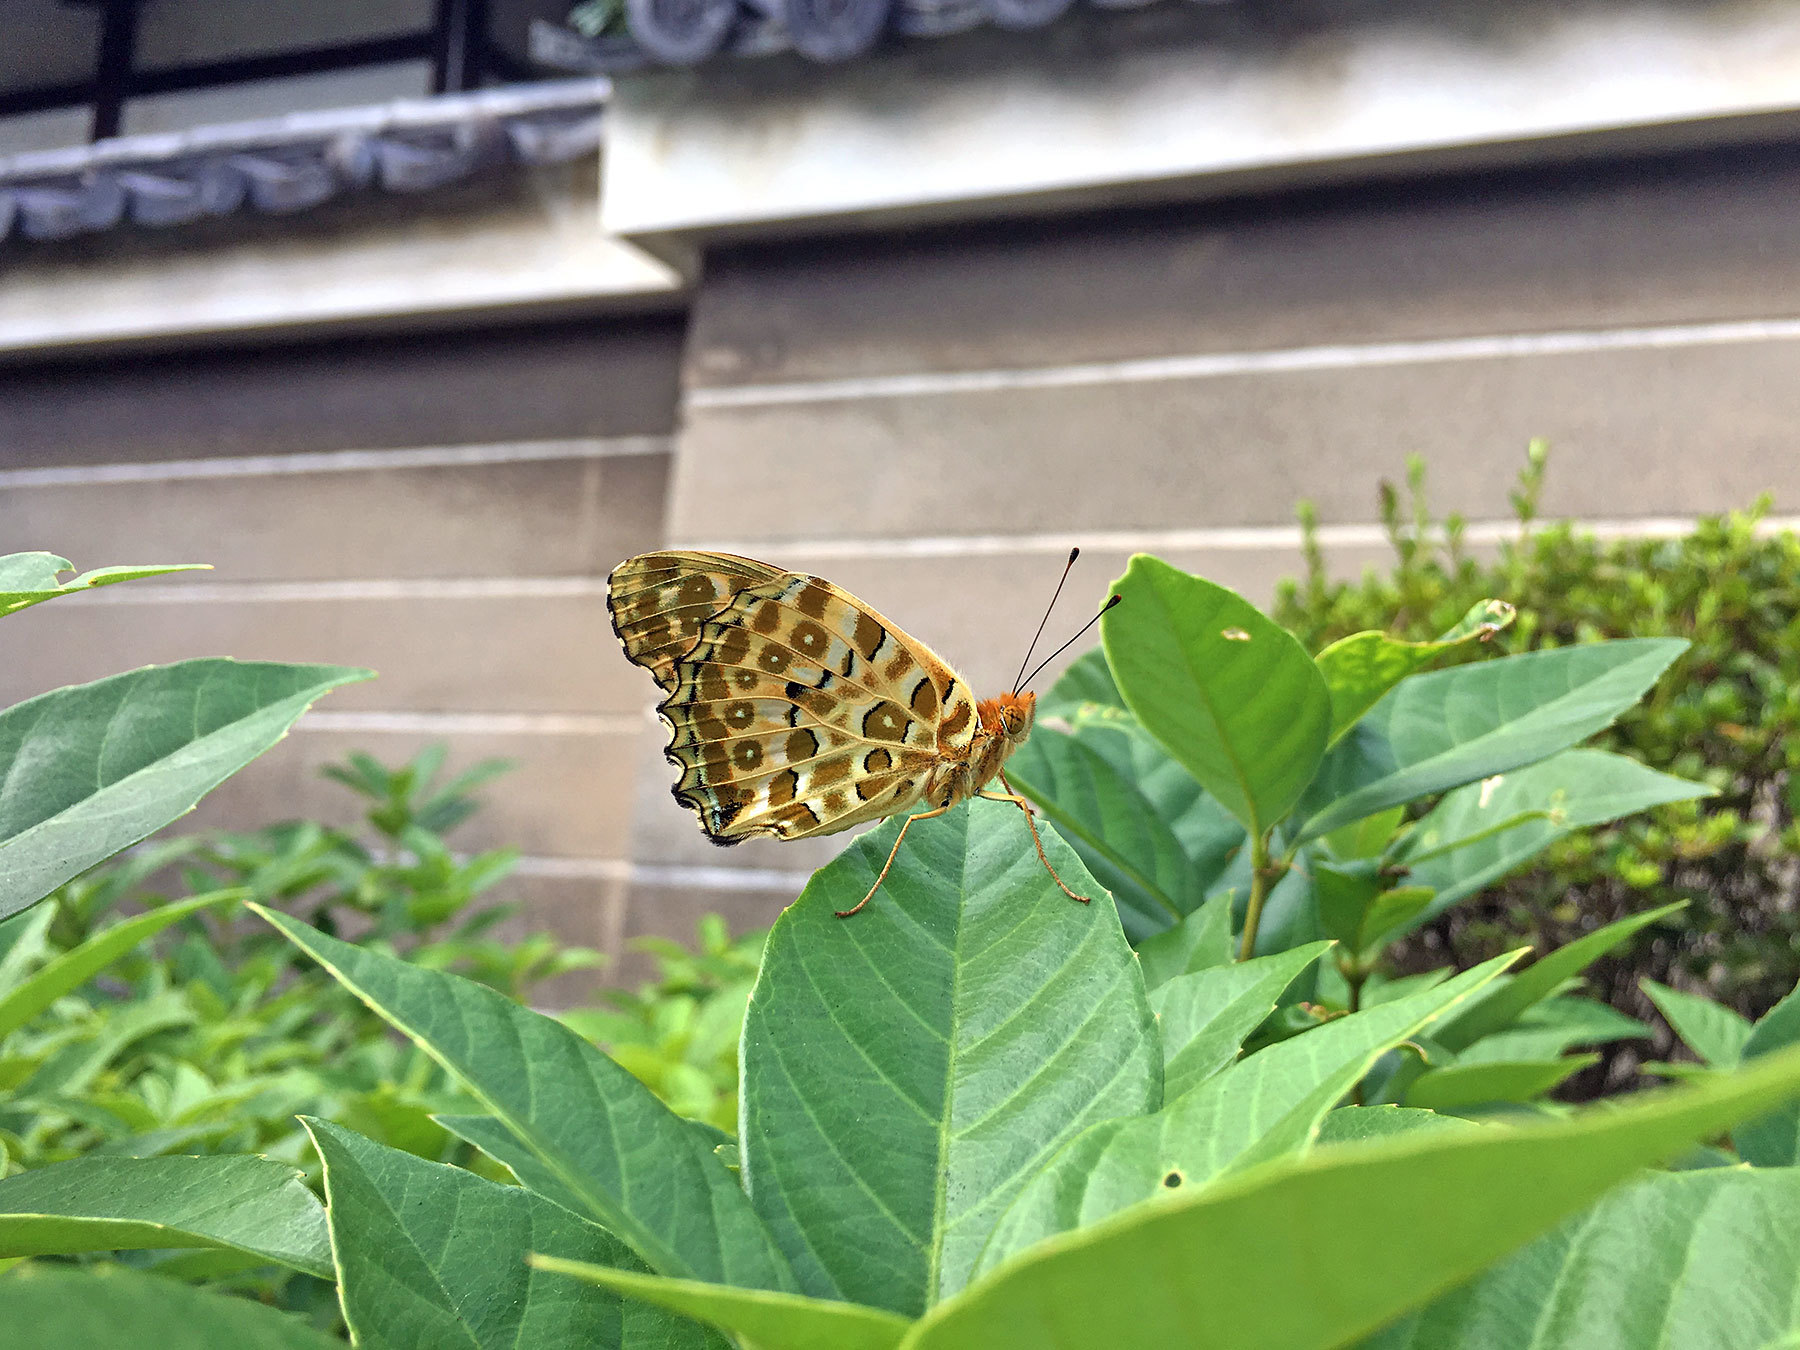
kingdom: Animalia
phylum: Arthropoda
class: Insecta
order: Lepidoptera
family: Nymphalidae
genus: Argynnis
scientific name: Argynnis hyperbius
